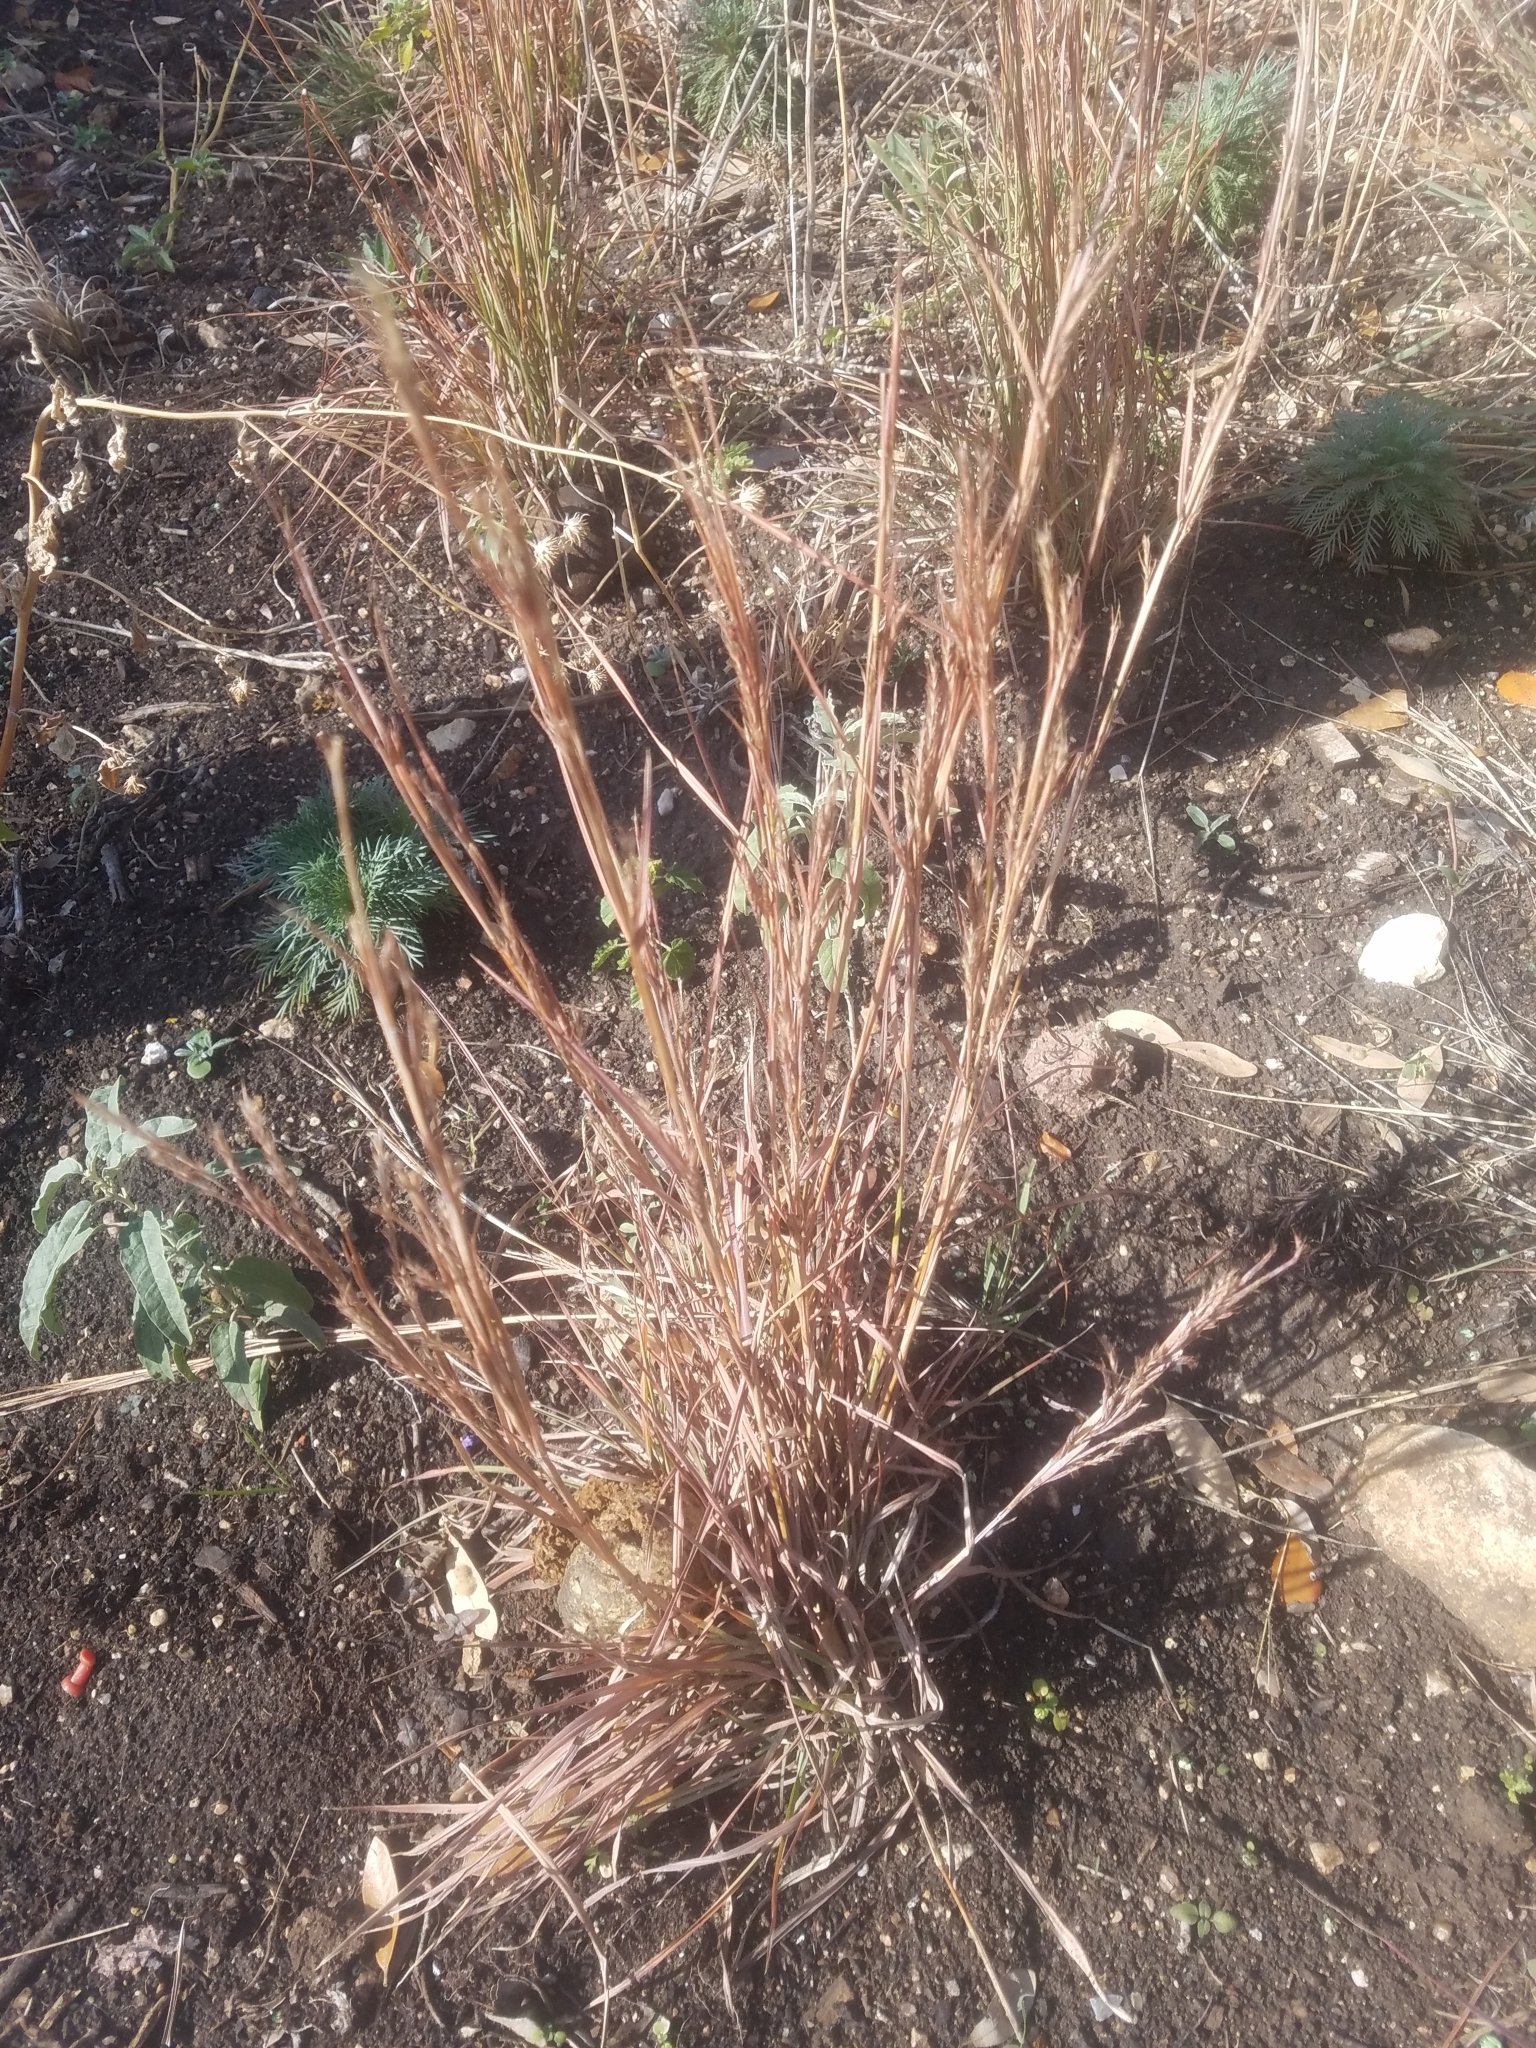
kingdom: Plantae
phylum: Tracheophyta
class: Liliopsida
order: Poales
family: Poaceae
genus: Schizachyrium
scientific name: Schizachyrium scoparium
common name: Little bluestem
